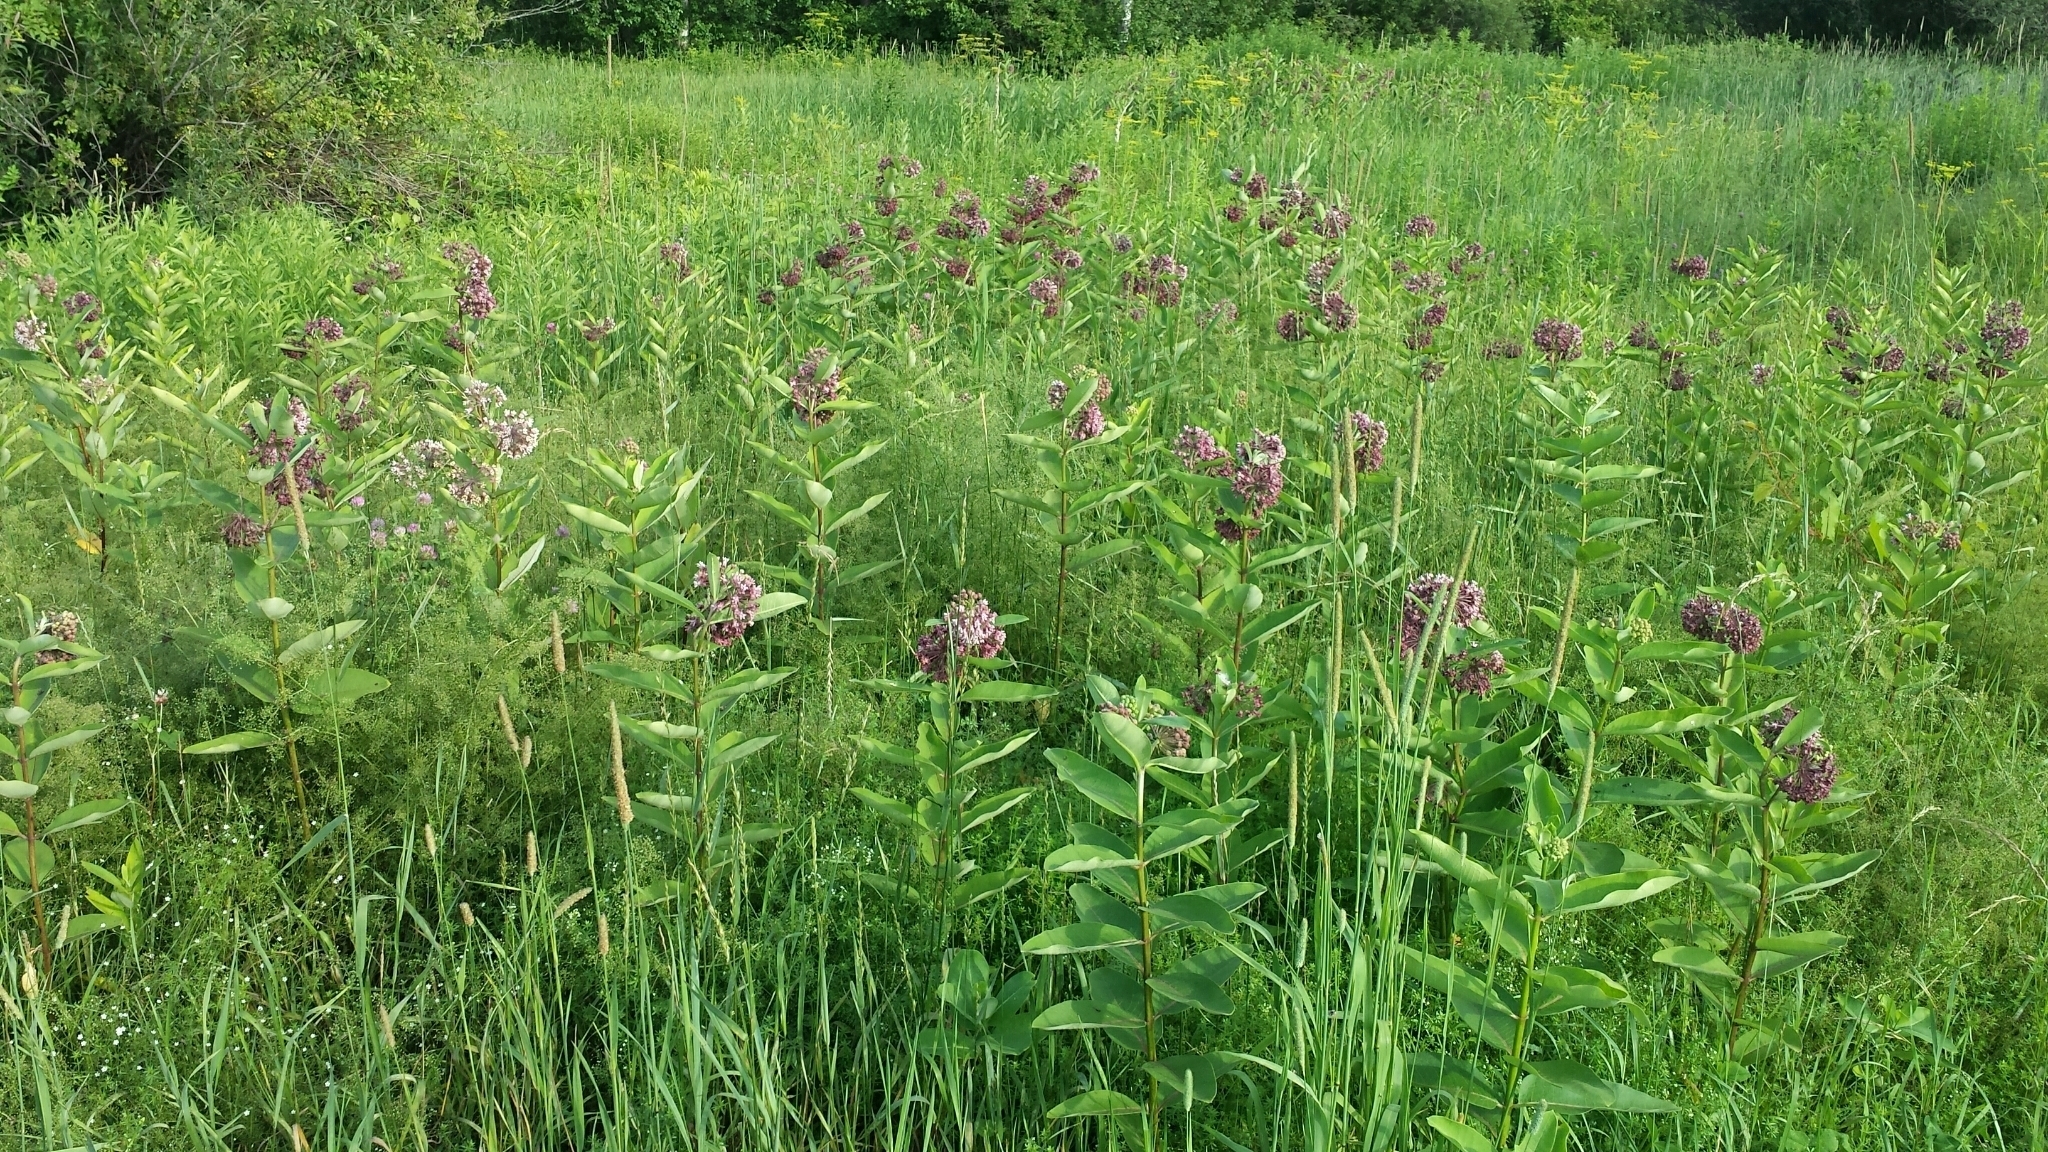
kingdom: Plantae
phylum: Tracheophyta
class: Magnoliopsida
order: Gentianales
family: Apocynaceae
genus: Asclepias
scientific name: Asclepias syriaca
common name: Common milkweed
